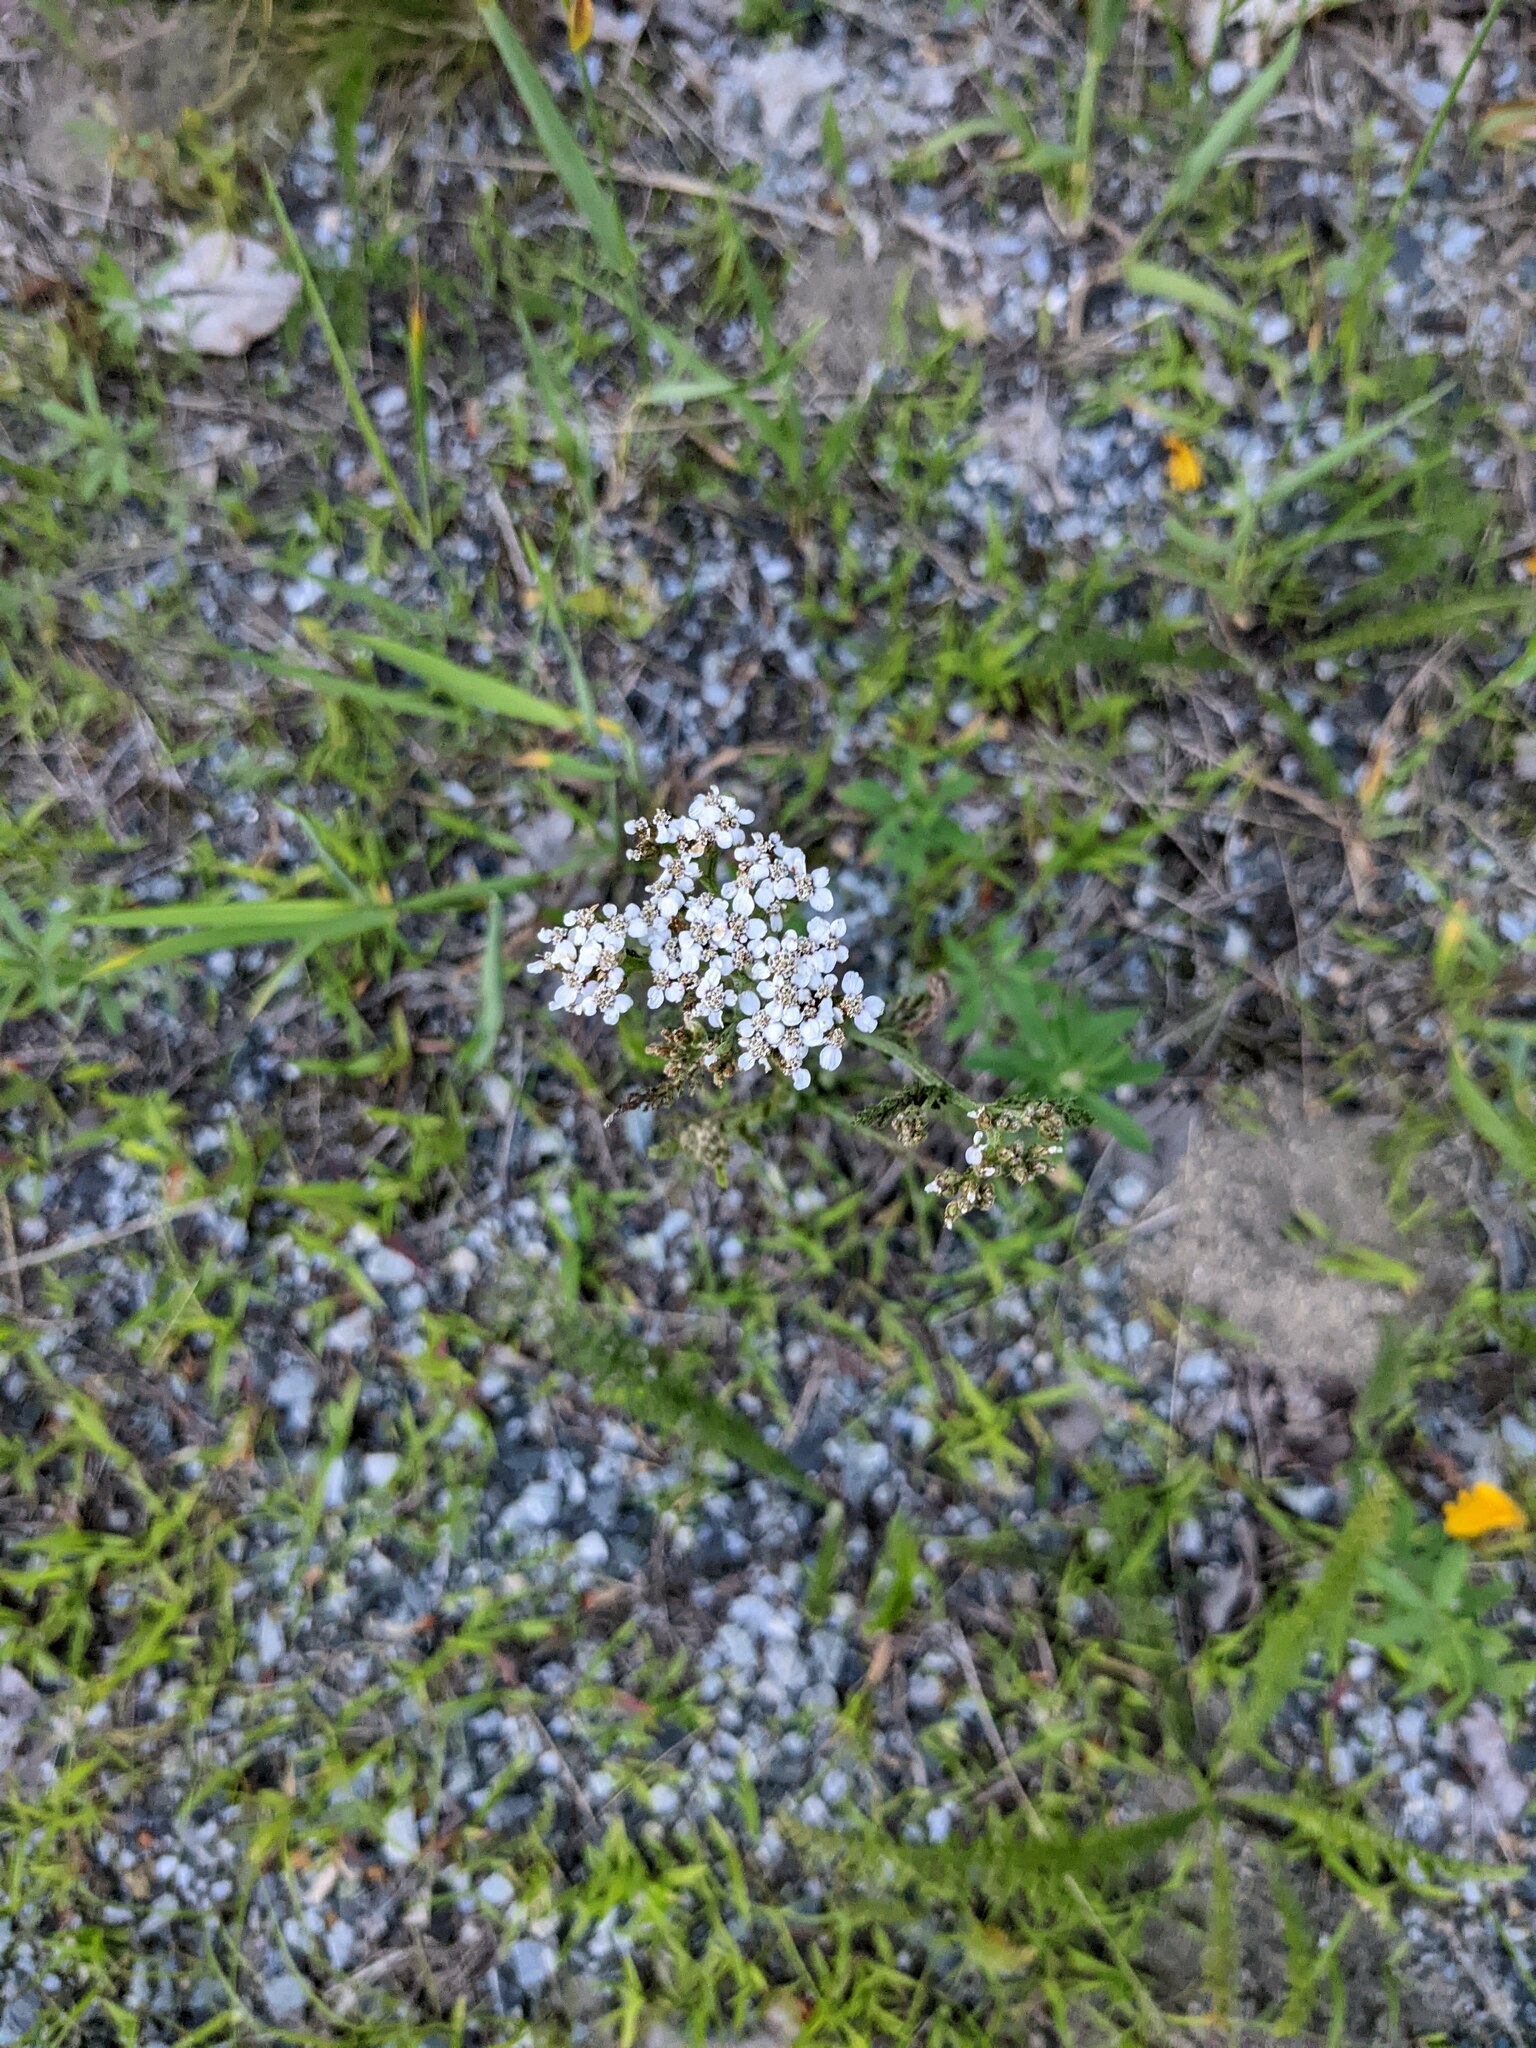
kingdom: Plantae
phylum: Tracheophyta
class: Magnoliopsida
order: Asterales
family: Asteraceae
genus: Achillea
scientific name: Achillea millefolium
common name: Yarrow
